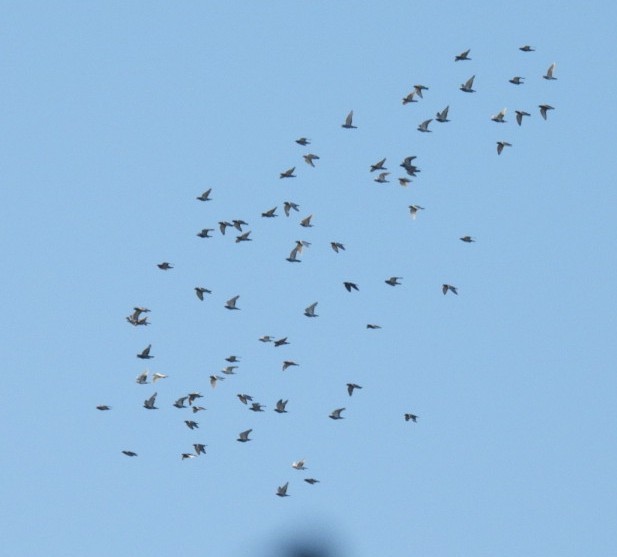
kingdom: Animalia
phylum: Chordata
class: Aves
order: Columbiformes
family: Columbidae
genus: Columba
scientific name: Columba livia
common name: Rock pigeon
